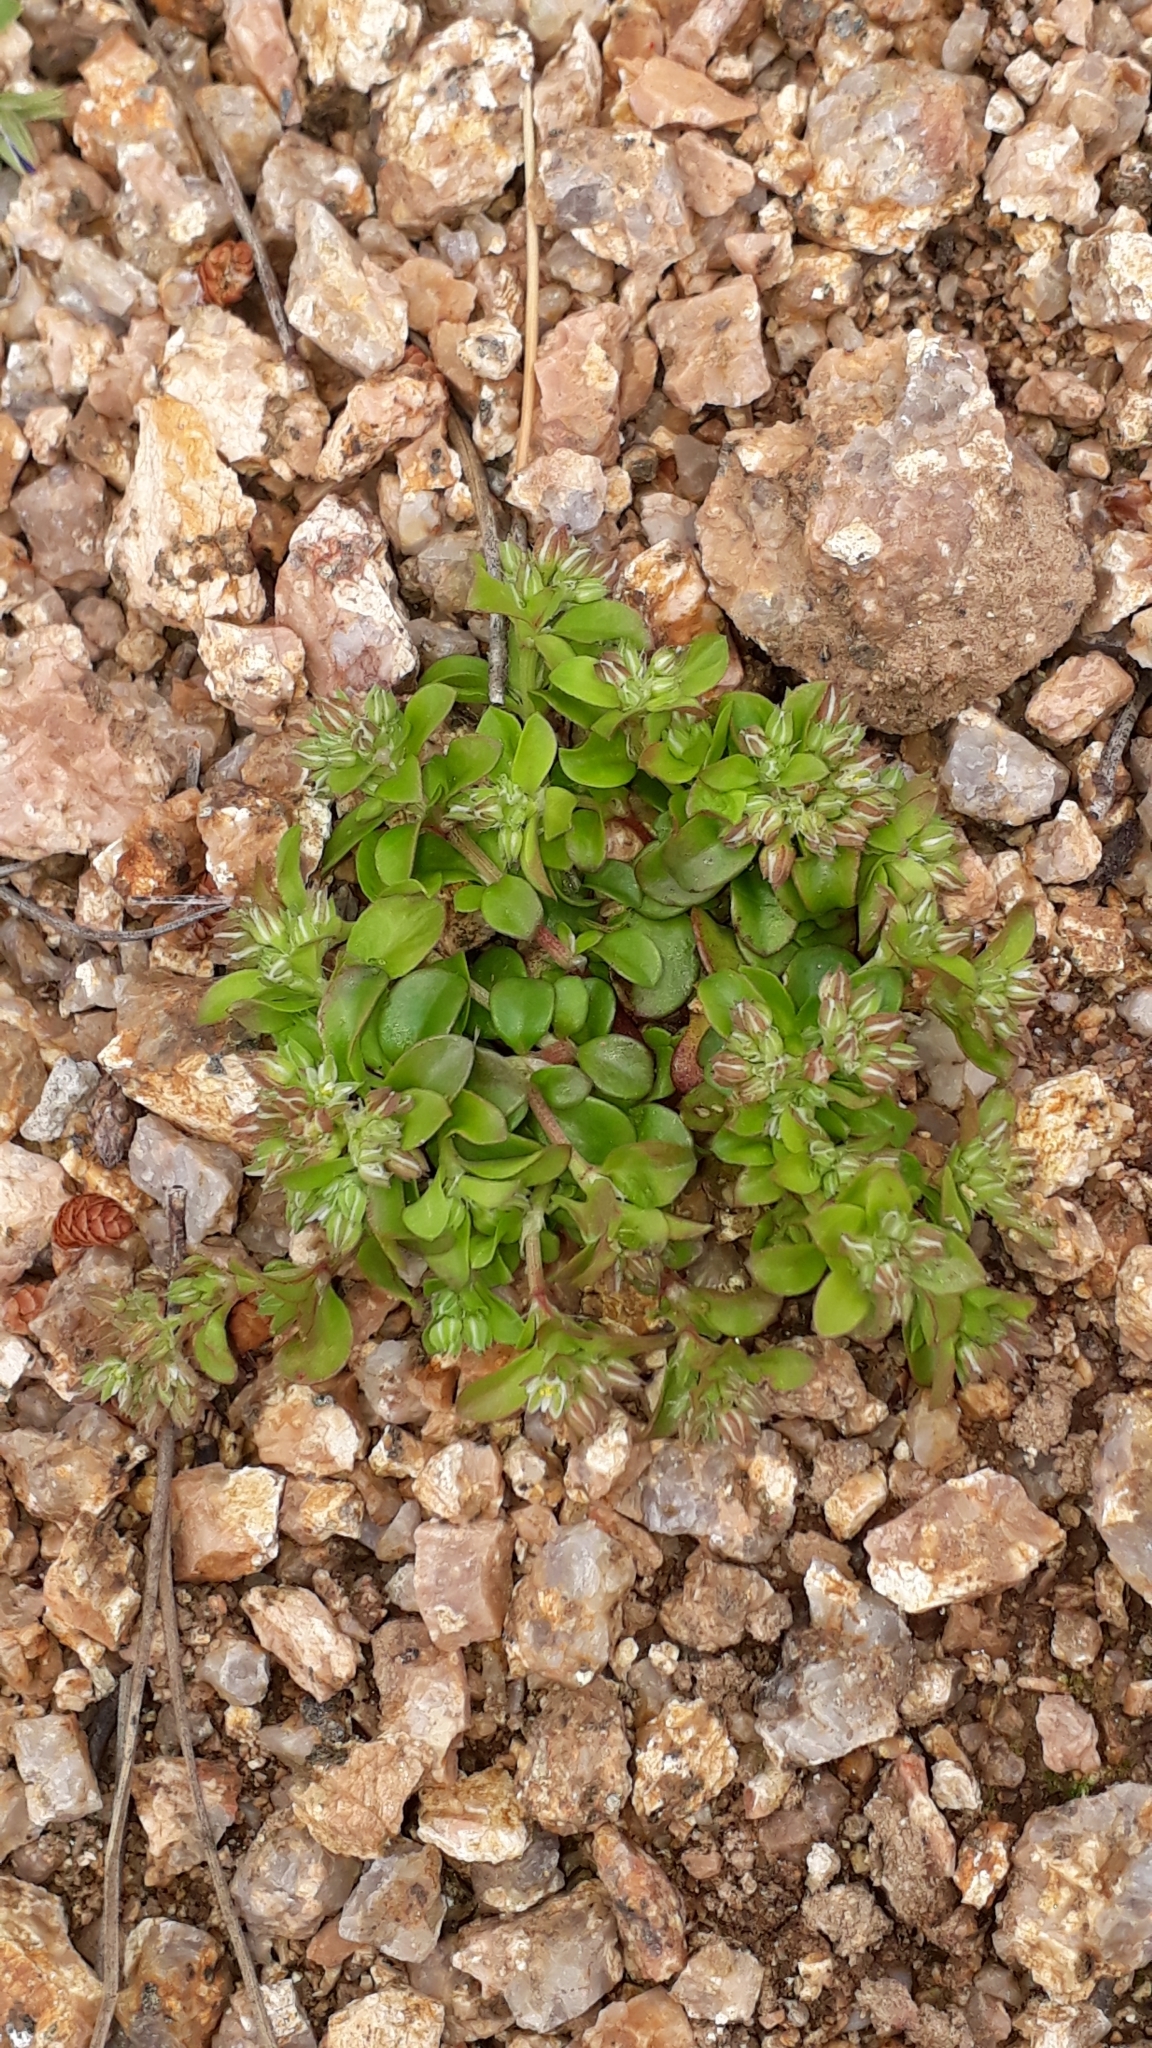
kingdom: Plantae
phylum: Tracheophyta
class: Magnoliopsida
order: Caryophyllales
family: Caryophyllaceae
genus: Polycarpon
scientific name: Polycarpon tetraphyllum
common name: Four-leaved all-seed
